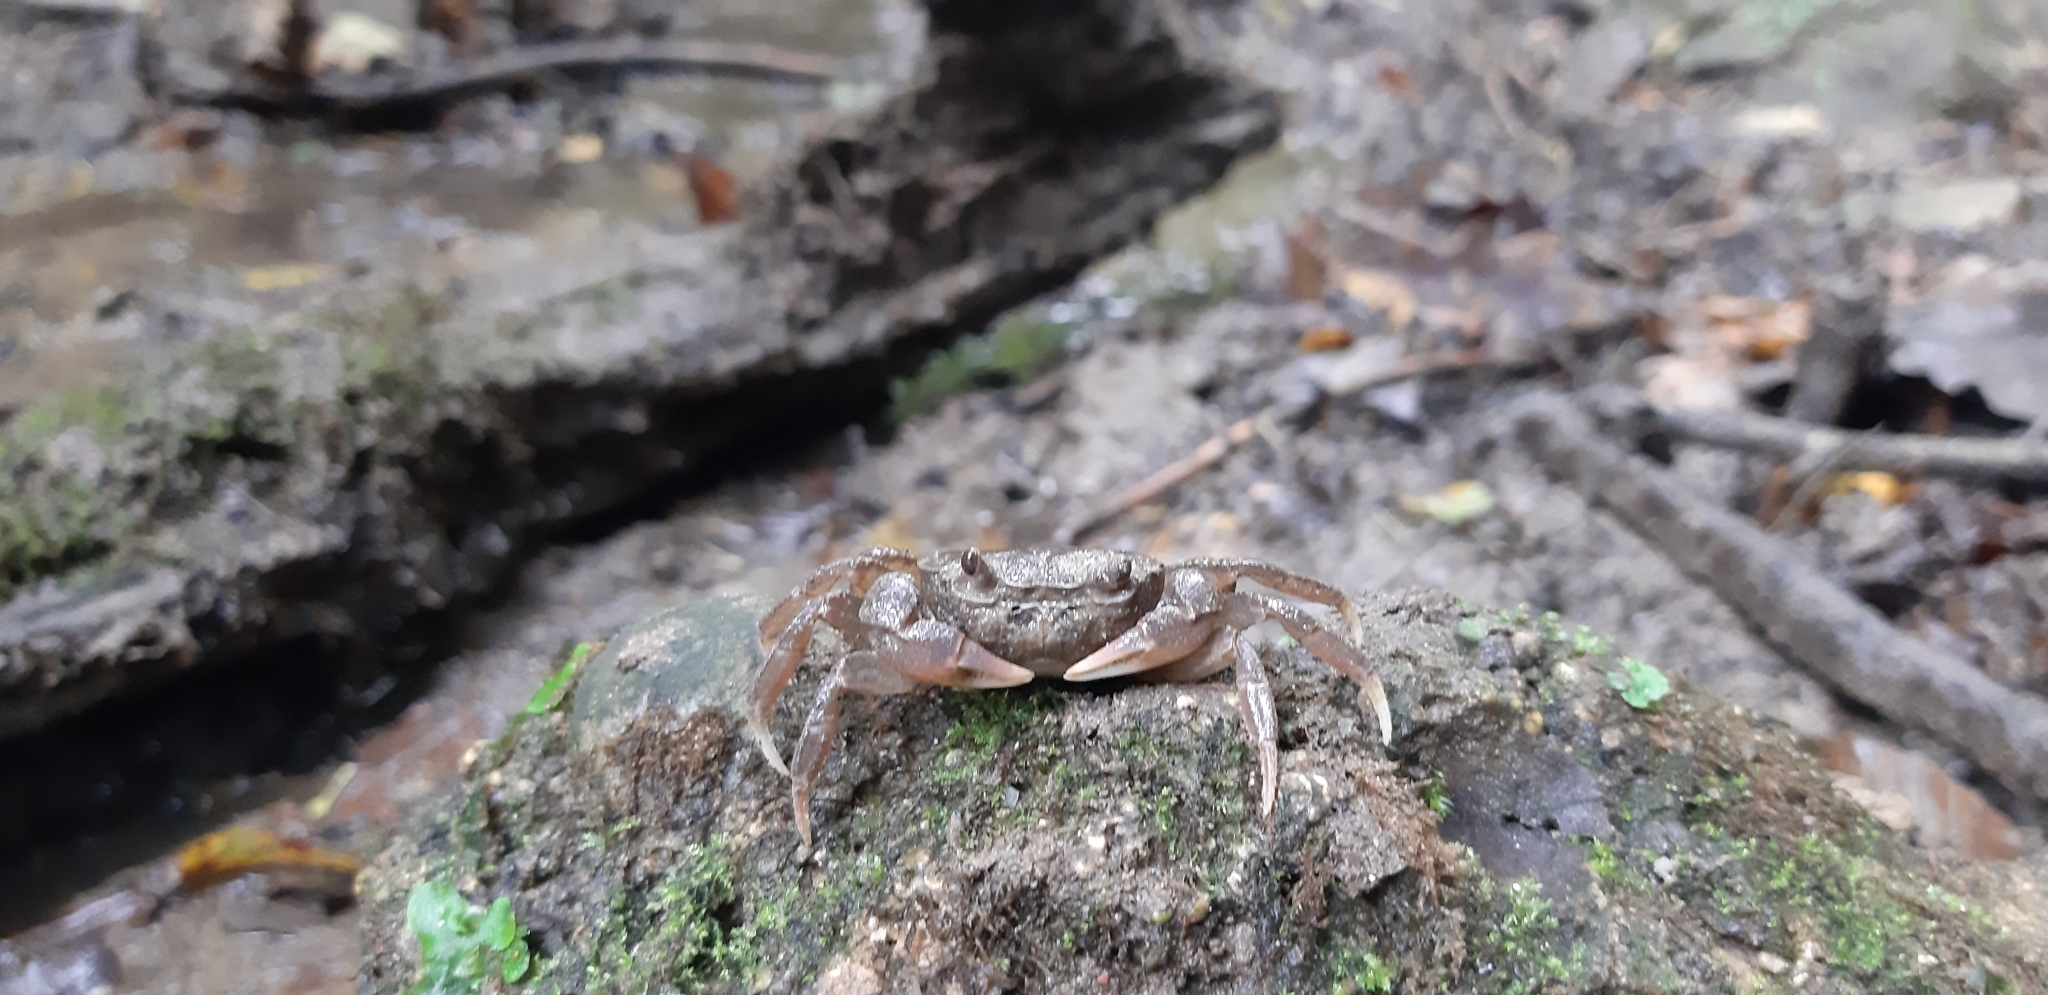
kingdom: Animalia
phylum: Arthropoda
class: Malacostraca
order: Decapoda
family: Potamidae
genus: Potamon
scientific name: Potamon fluviatile
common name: Italian freshwater crab
